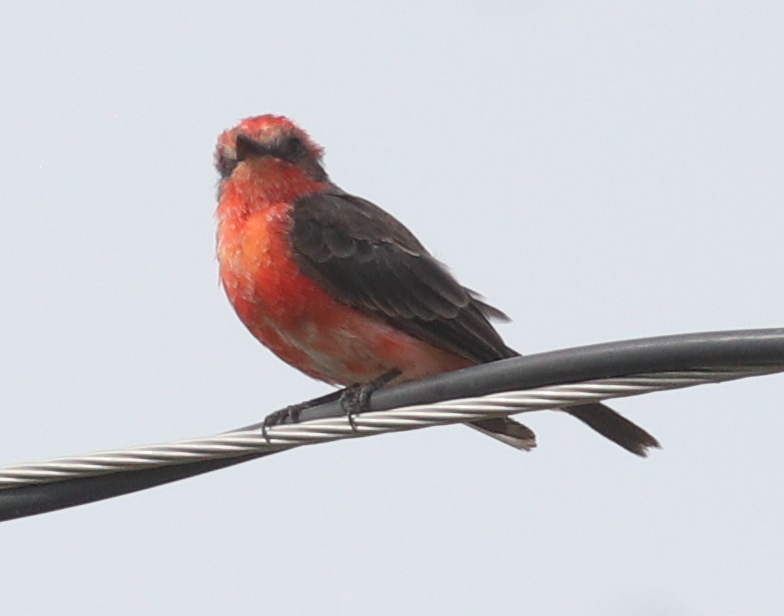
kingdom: Animalia
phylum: Chordata
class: Aves
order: Passeriformes
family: Tyrannidae
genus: Pyrocephalus
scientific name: Pyrocephalus rubinus
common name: Vermilion flycatcher
